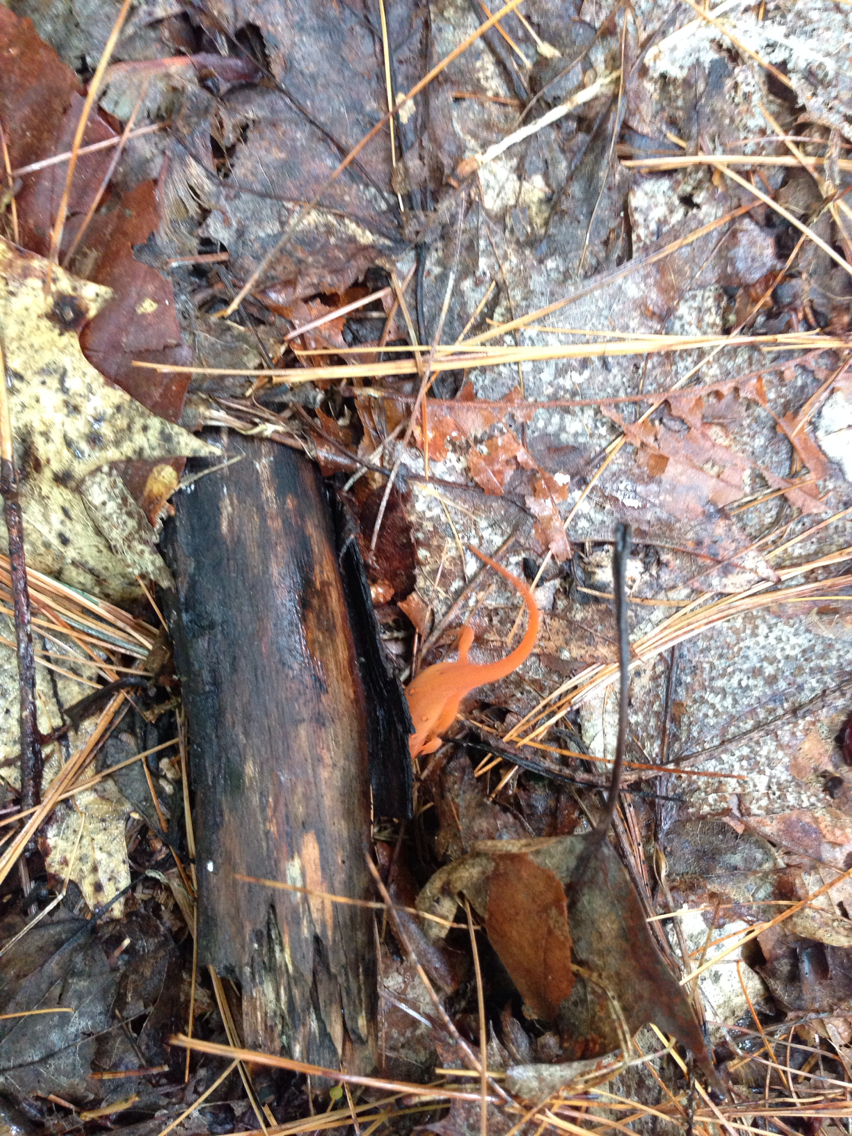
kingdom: Animalia
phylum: Chordata
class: Amphibia
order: Caudata
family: Salamandridae
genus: Notophthalmus
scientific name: Notophthalmus viridescens
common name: Eastern newt
